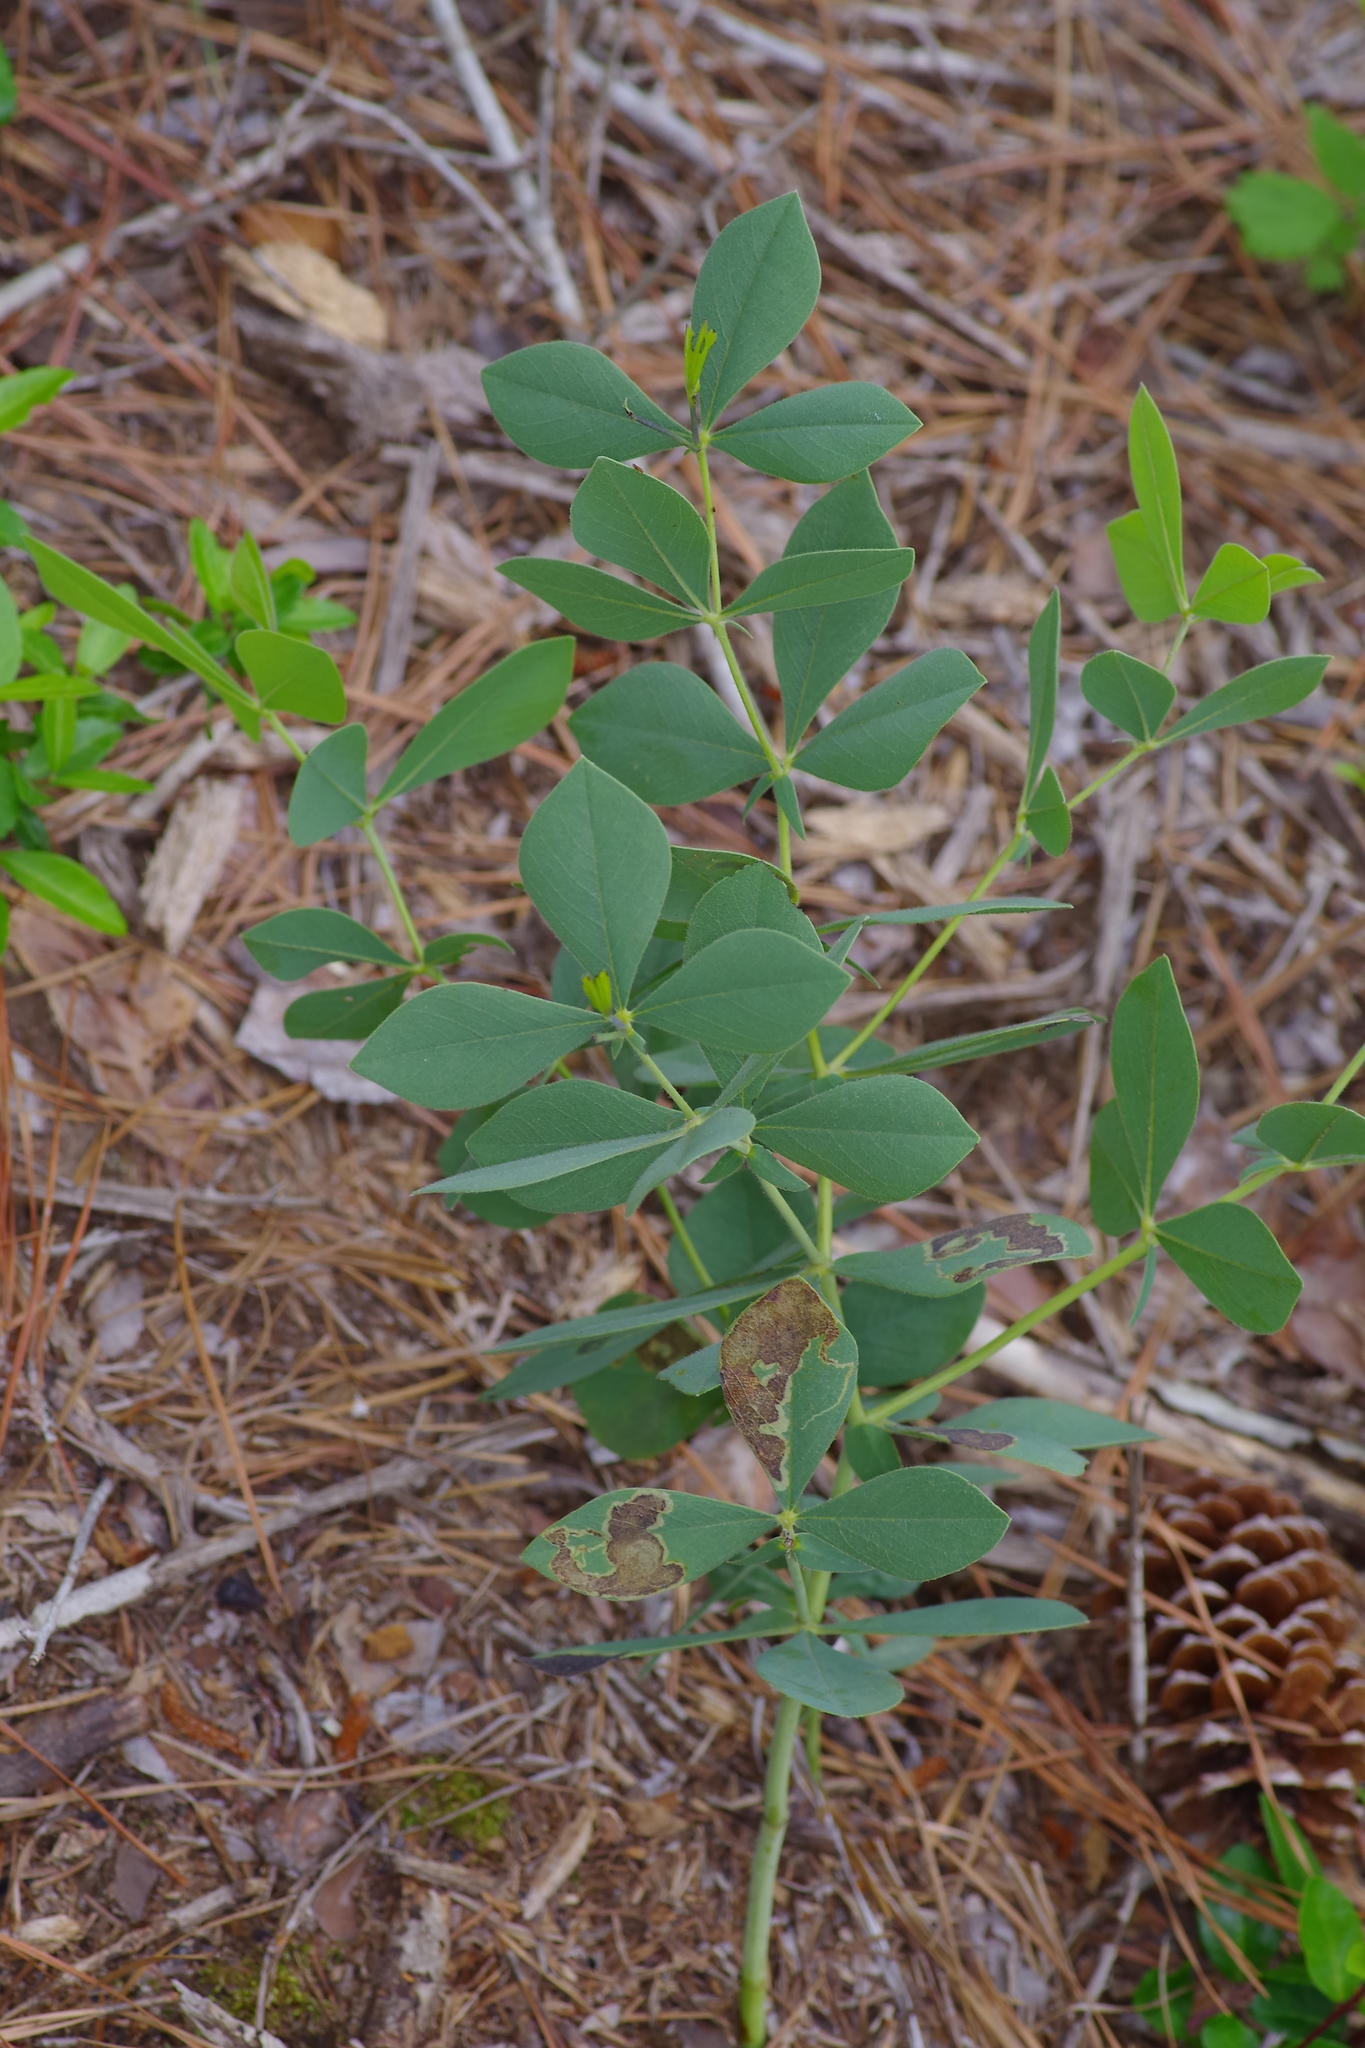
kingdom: Plantae
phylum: Tracheophyta
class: Magnoliopsida
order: Fabales
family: Fabaceae
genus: Baptisia
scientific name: Baptisia bracteata
